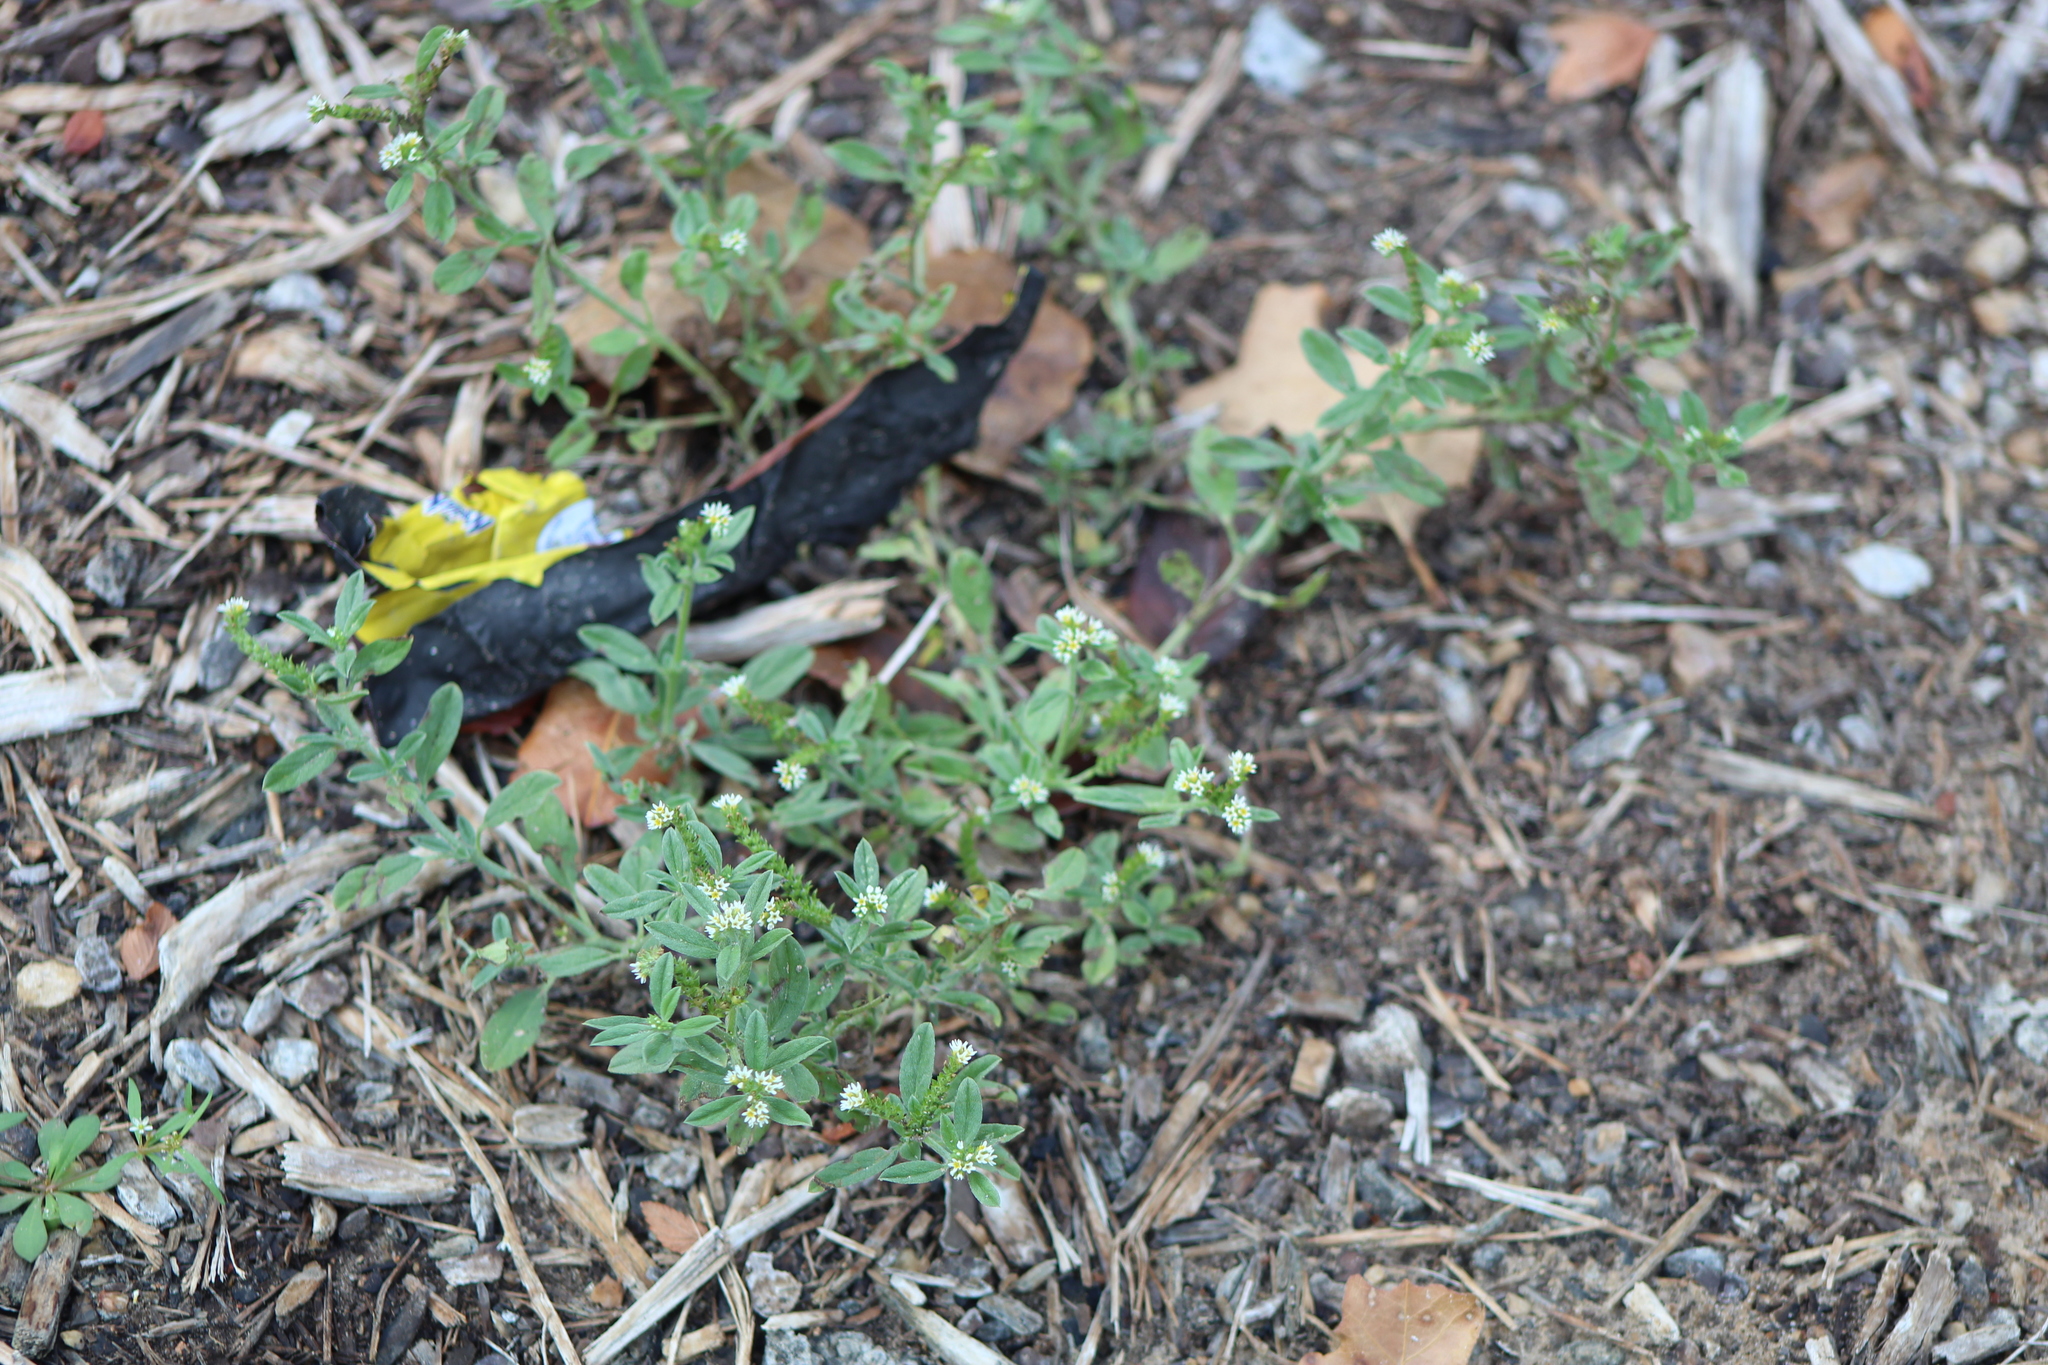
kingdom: Plantae
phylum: Tracheophyta
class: Magnoliopsida
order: Boraginales
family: Heliotropiaceae
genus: Euploca
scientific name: Euploca procumbens
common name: Fourspike heliotrope
